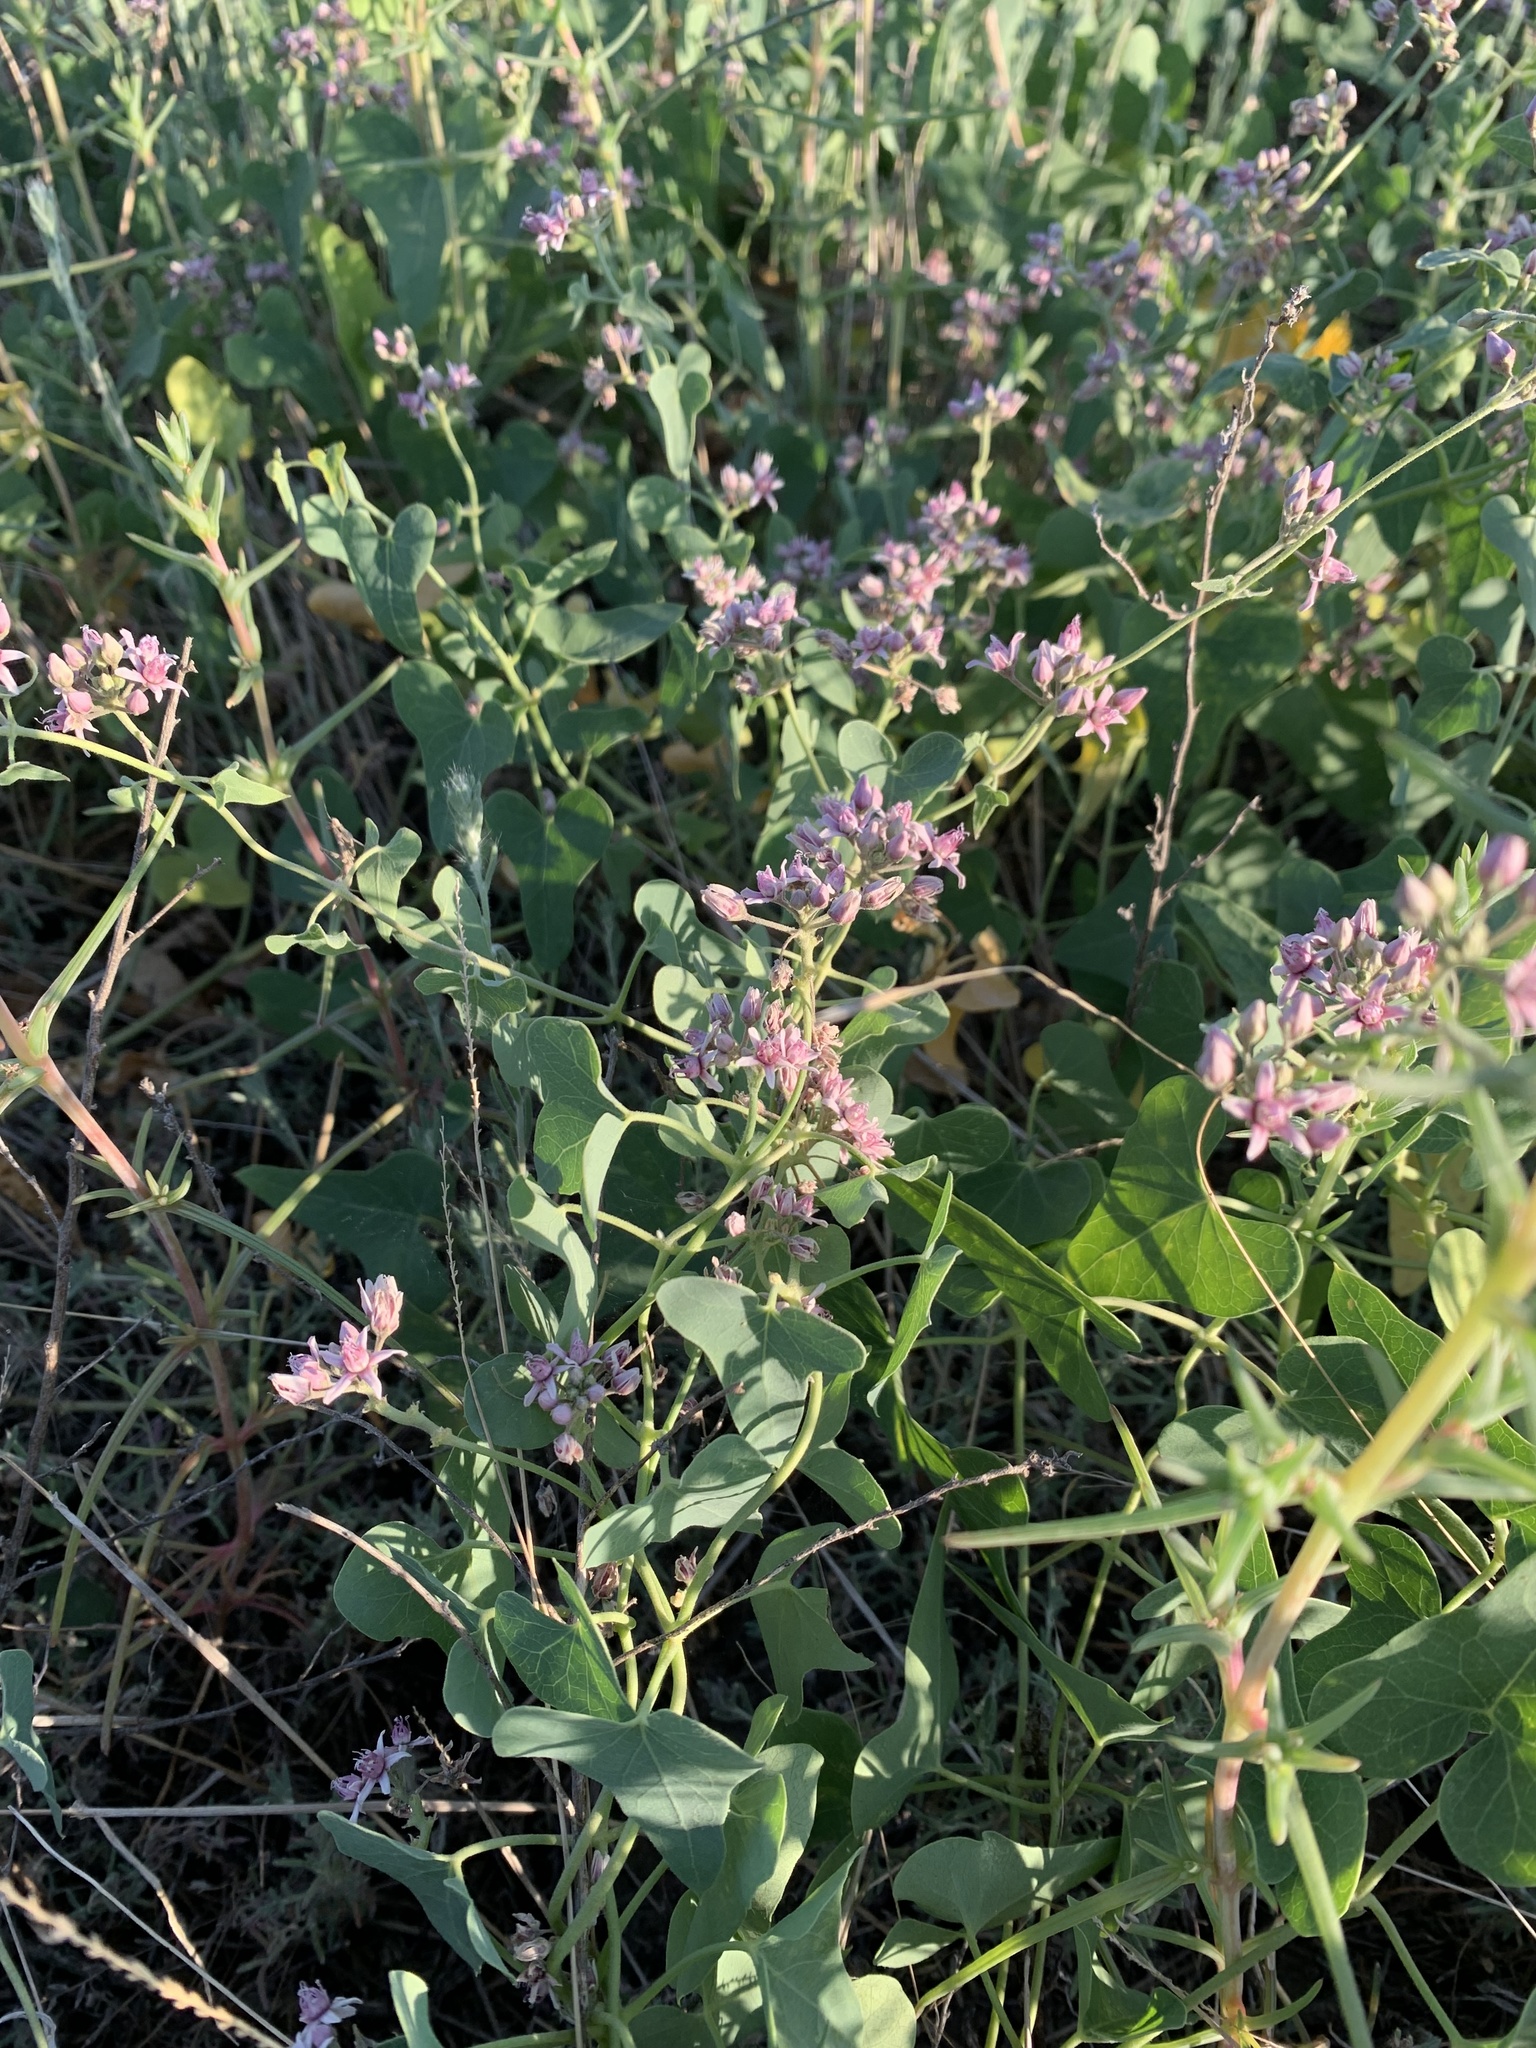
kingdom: Plantae
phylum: Tracheophyta
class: Magnoliopsida
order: Gentianales
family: Apocynaceae
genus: Cynanchum
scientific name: Cynanchum acutum
